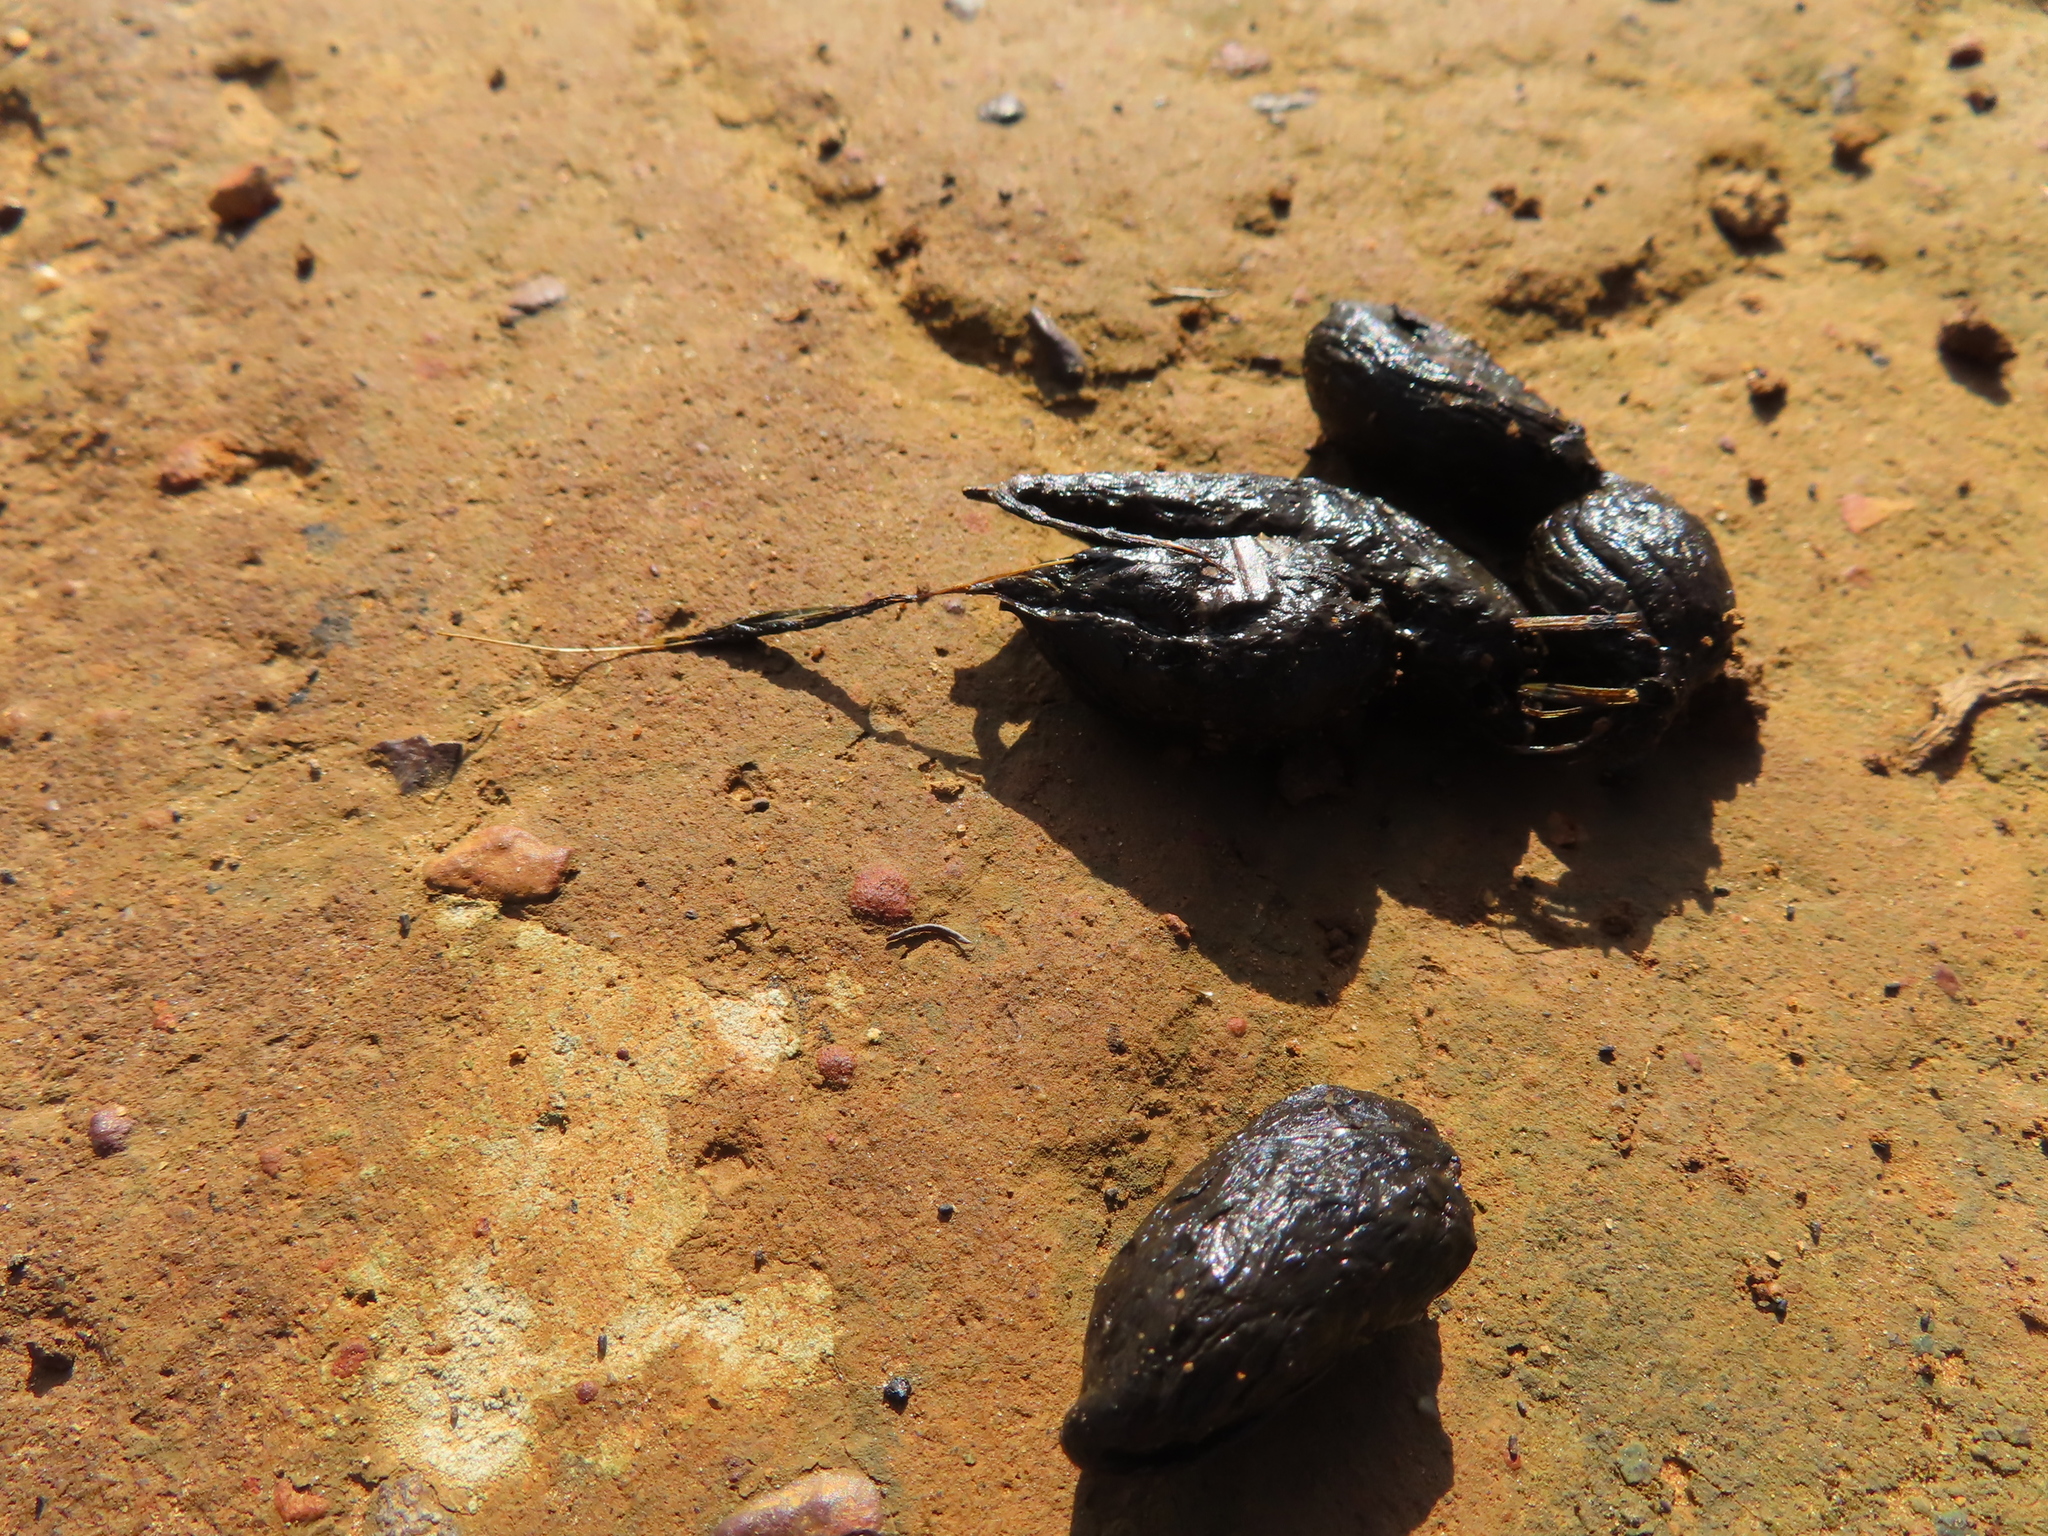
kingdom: Animalia
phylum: Chordata
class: Mammalia
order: Rodentia
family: Hystricidae
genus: Hystrix
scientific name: Hystrix africaeaustralis
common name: Cape porcupine
